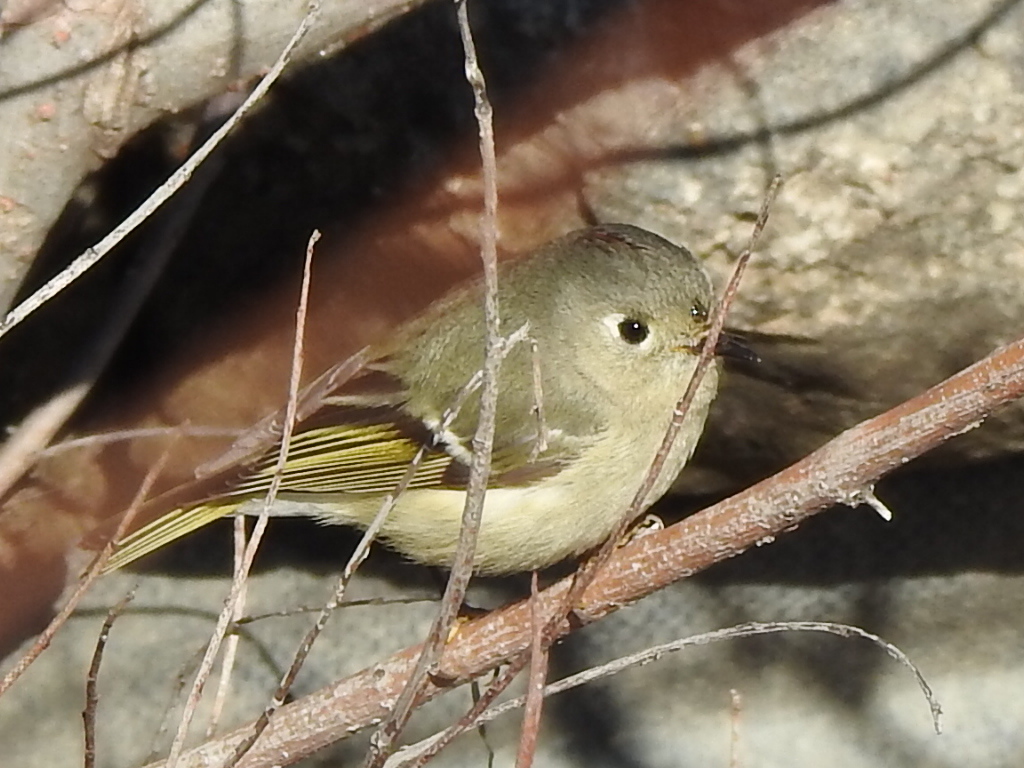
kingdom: Animalia
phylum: Chordata
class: Aves
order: Passeriformes
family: Regulidae
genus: Regulus
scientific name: Regulus calendula
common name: Ruby-crowned kinglet
